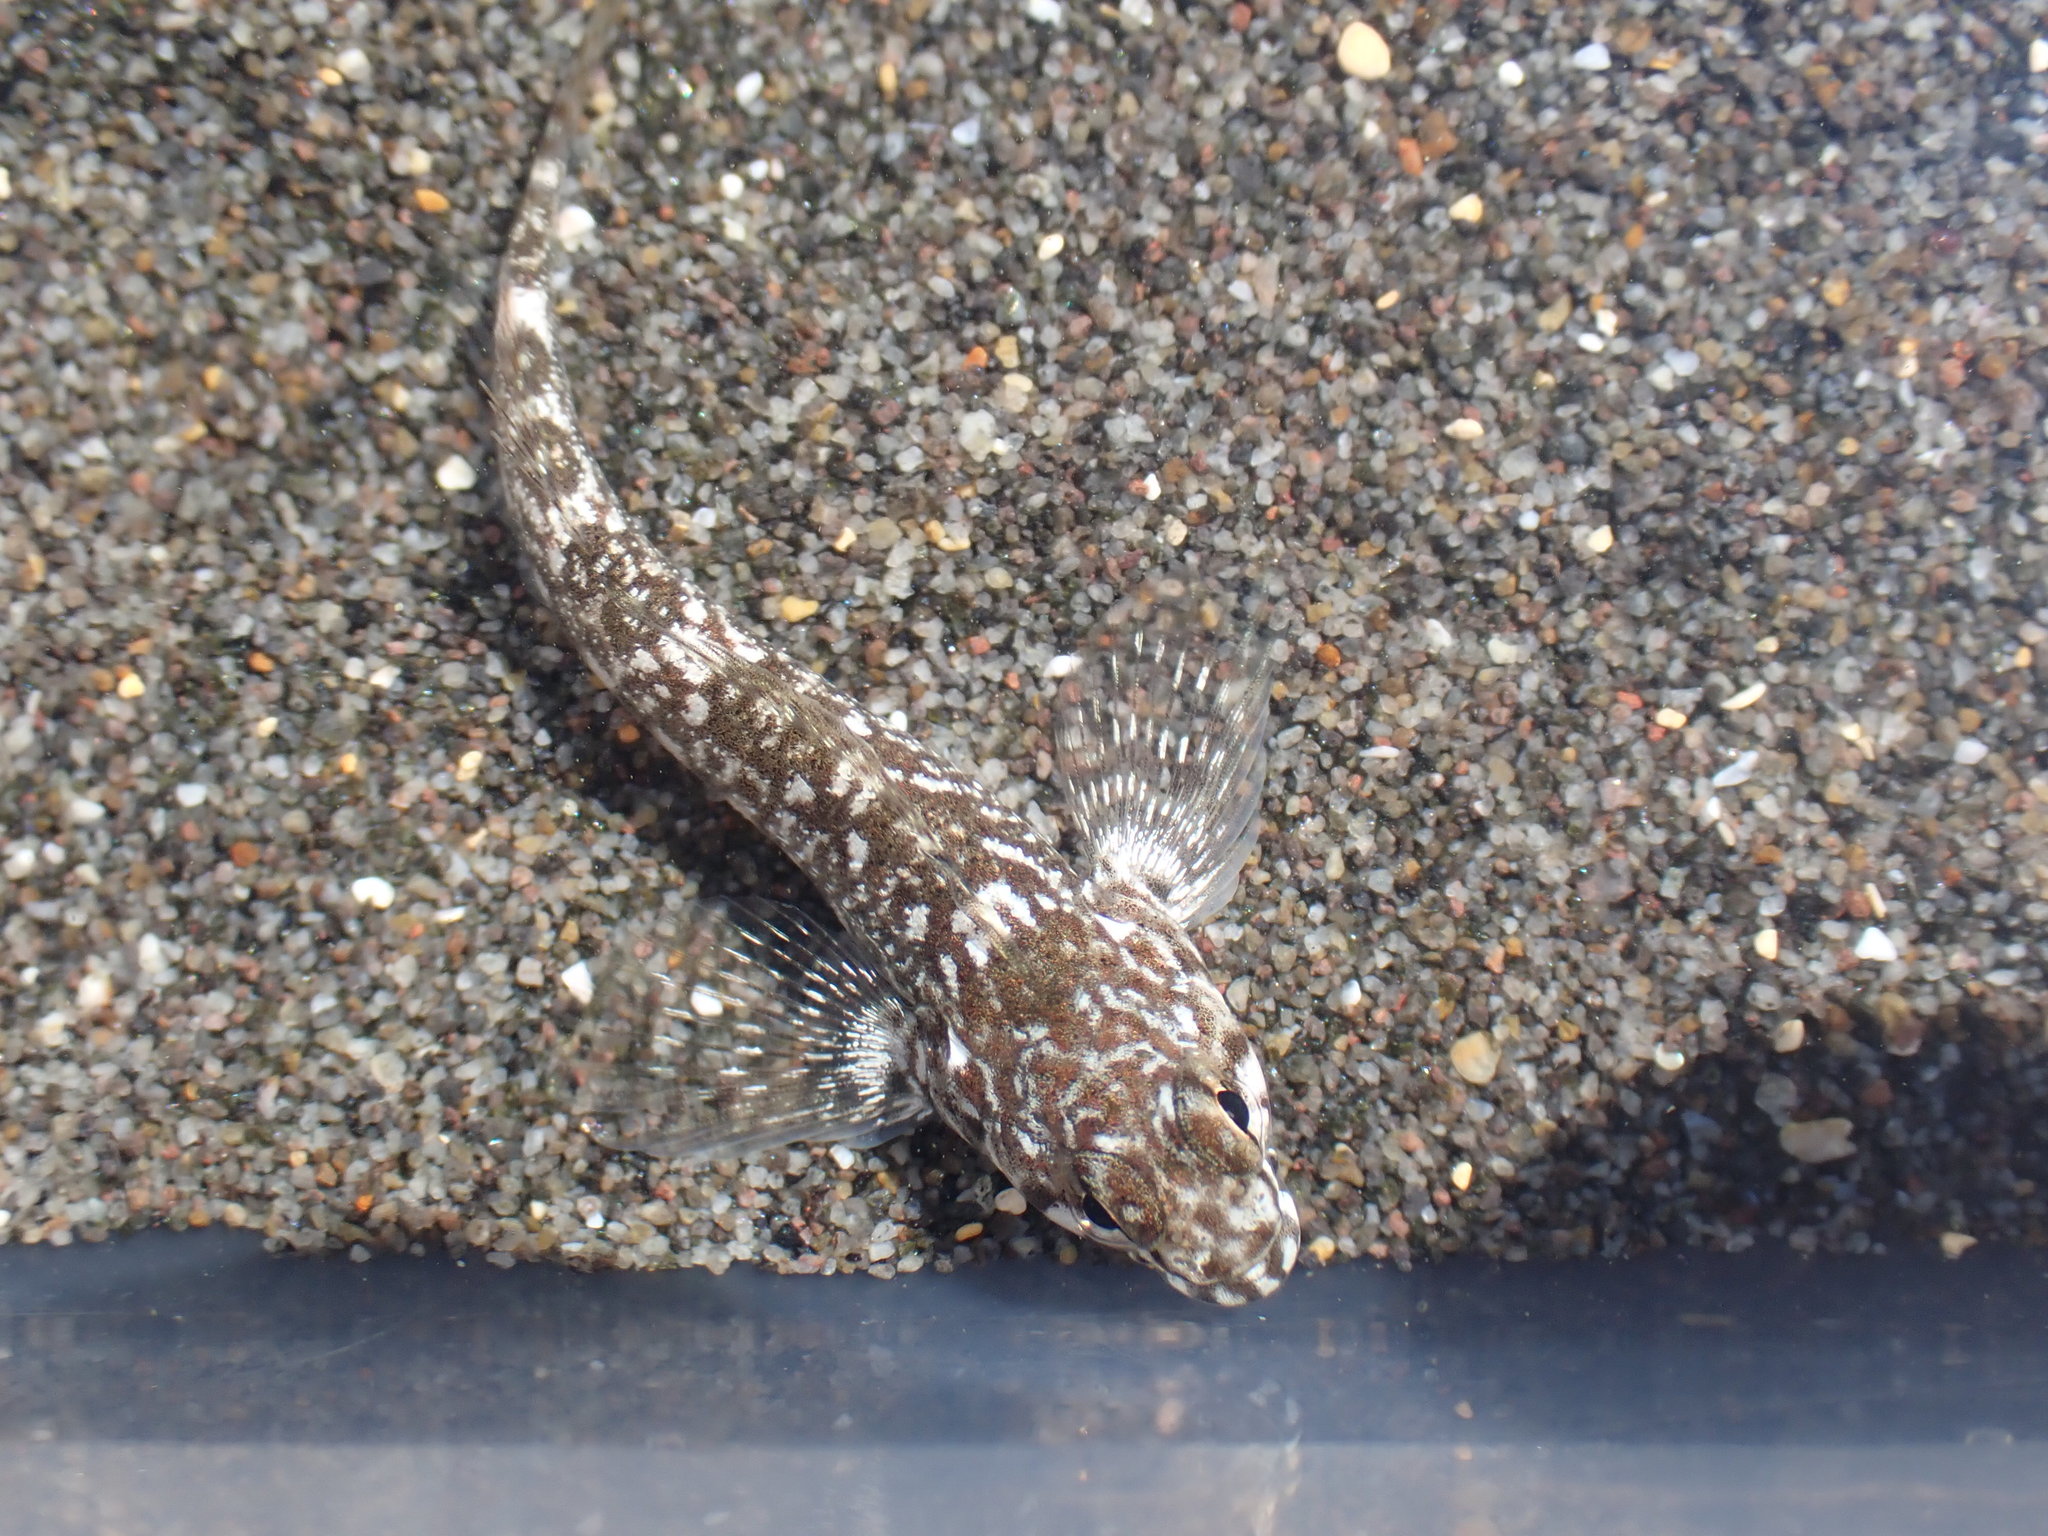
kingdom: Animalia
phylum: Chordata
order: Perciformes
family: Tripterygiidae
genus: Bellapiscis
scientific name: Bellapiscis medius
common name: Twister
